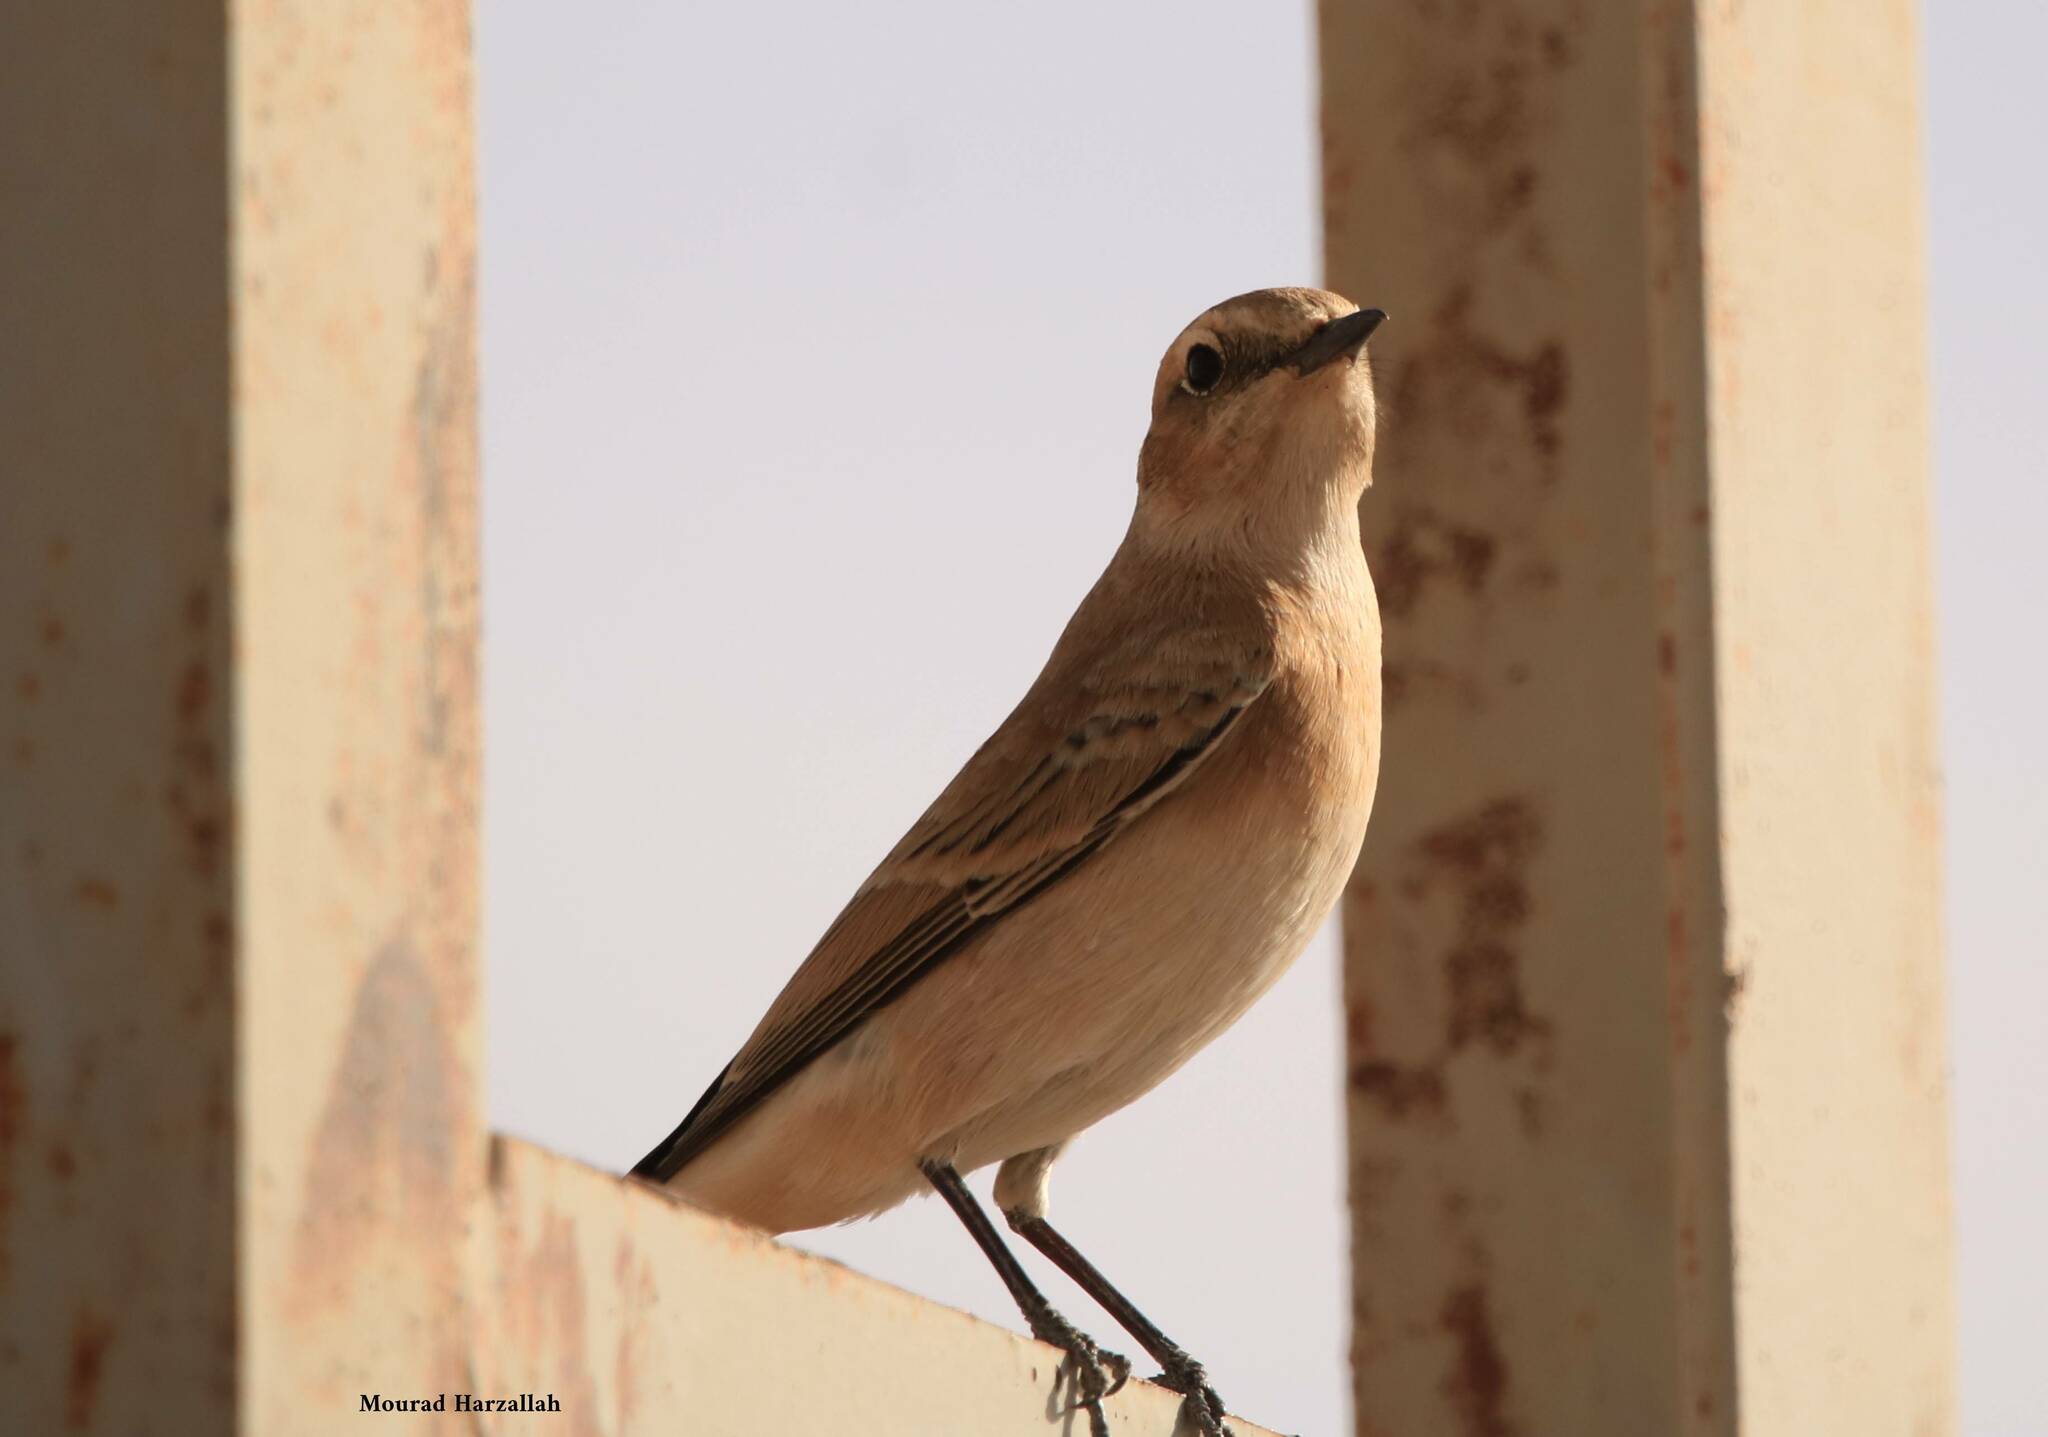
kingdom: Animalia
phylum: Chordata
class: Aves
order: Passeriformes
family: Muscicapidae
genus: Oenanthe
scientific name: Oenanthe oenanthe
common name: Northern wheatear
